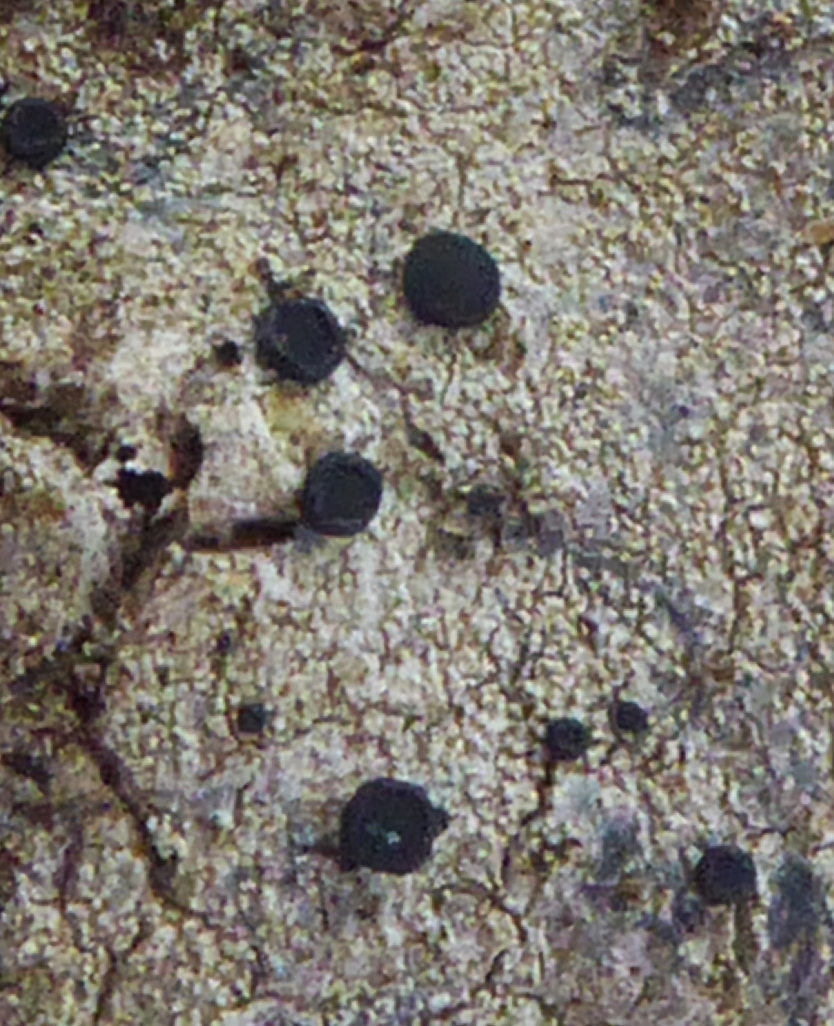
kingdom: Fungi
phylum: Ascomycota
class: Lecanoromycetes
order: Lecanorales
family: Ramalinaceae
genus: Megalaria
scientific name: Megalaria grossa
